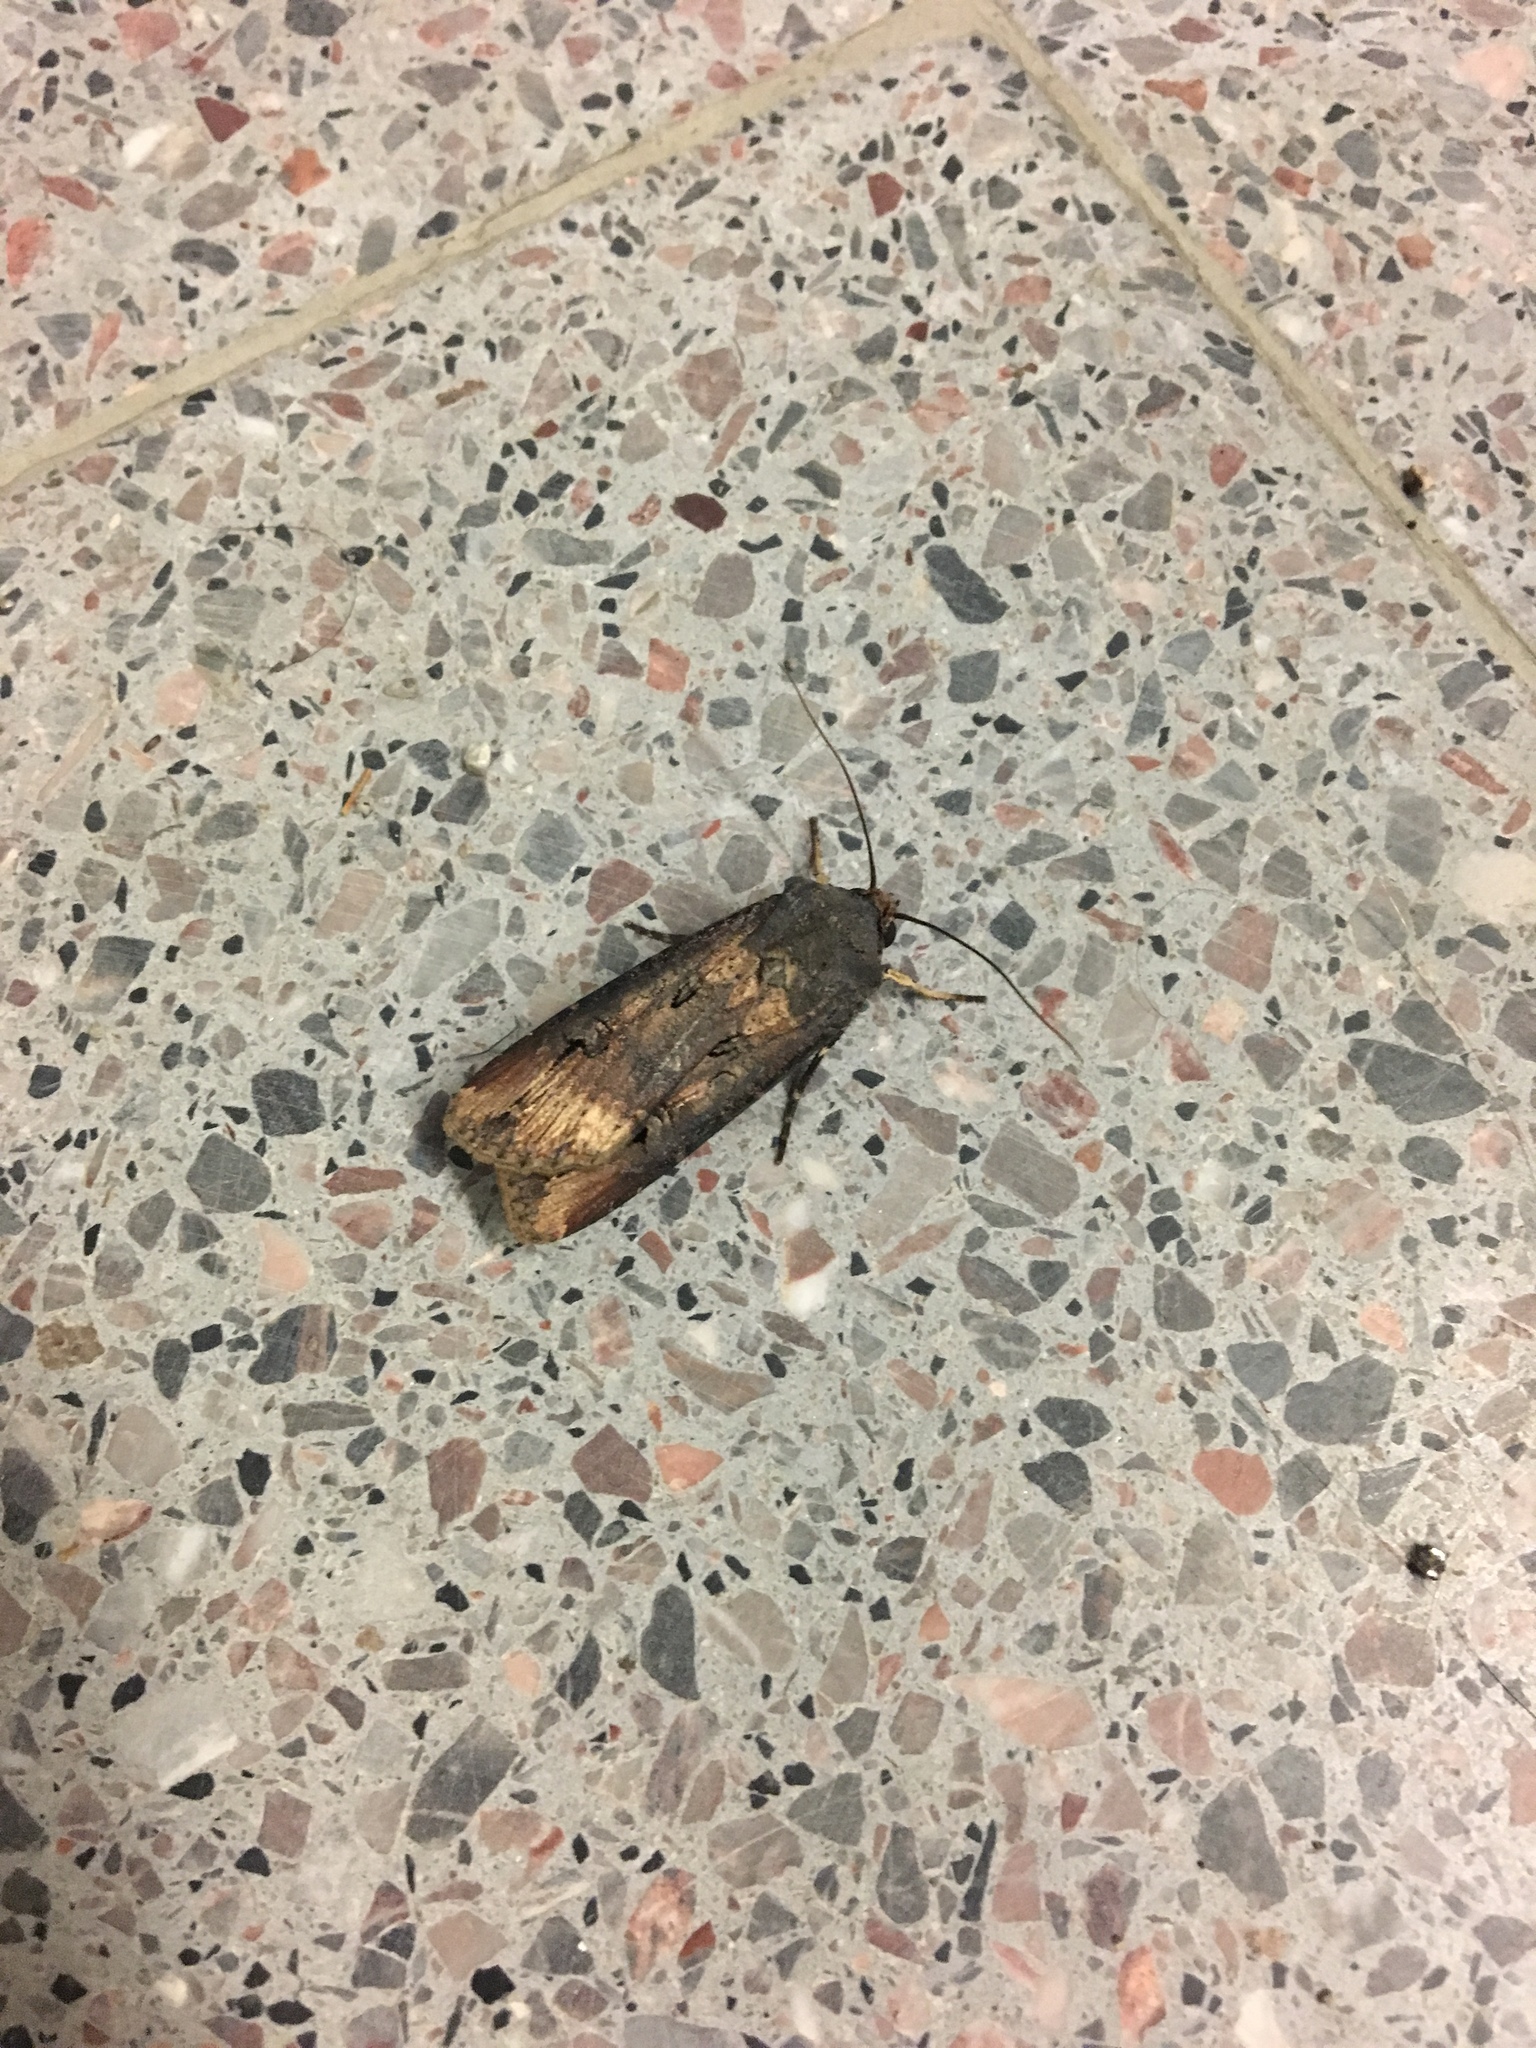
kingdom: Animalia
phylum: Arthropoda
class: Insecta
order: Lepidoptera
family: Noctuidae
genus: Agrotis
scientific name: Agrotis ipsilon
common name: Dark sword-grass
